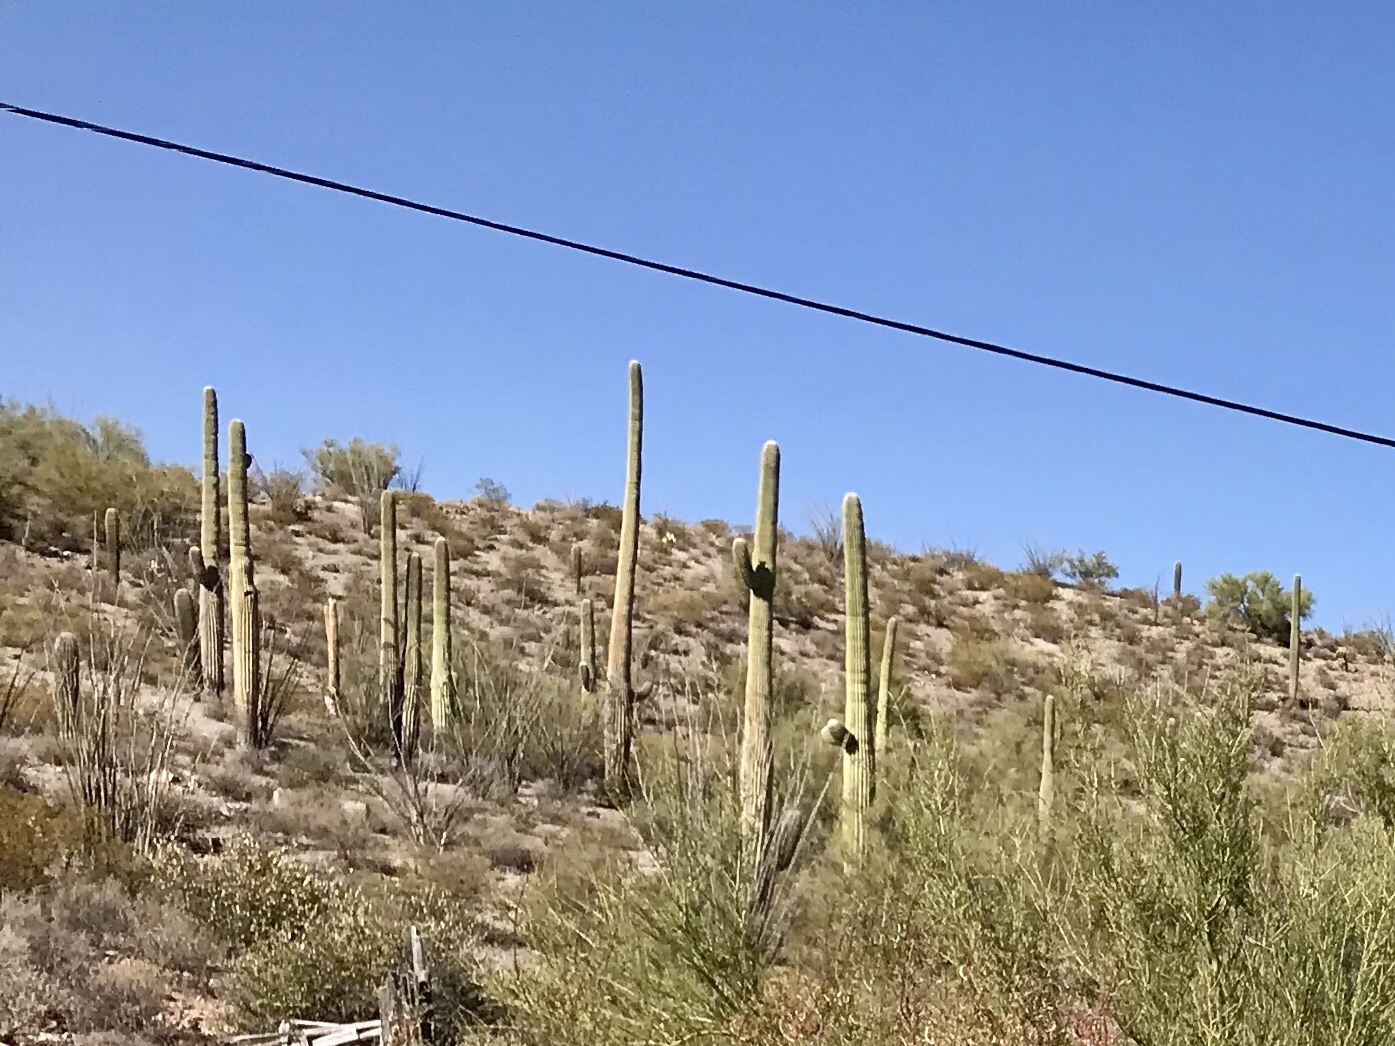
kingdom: Plantae
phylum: Tracheophyta
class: Magnoliopsida
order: Caryophyllales
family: Cactaceae
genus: Carnegiea
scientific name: Carnegiea gigantea
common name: Saguaro
